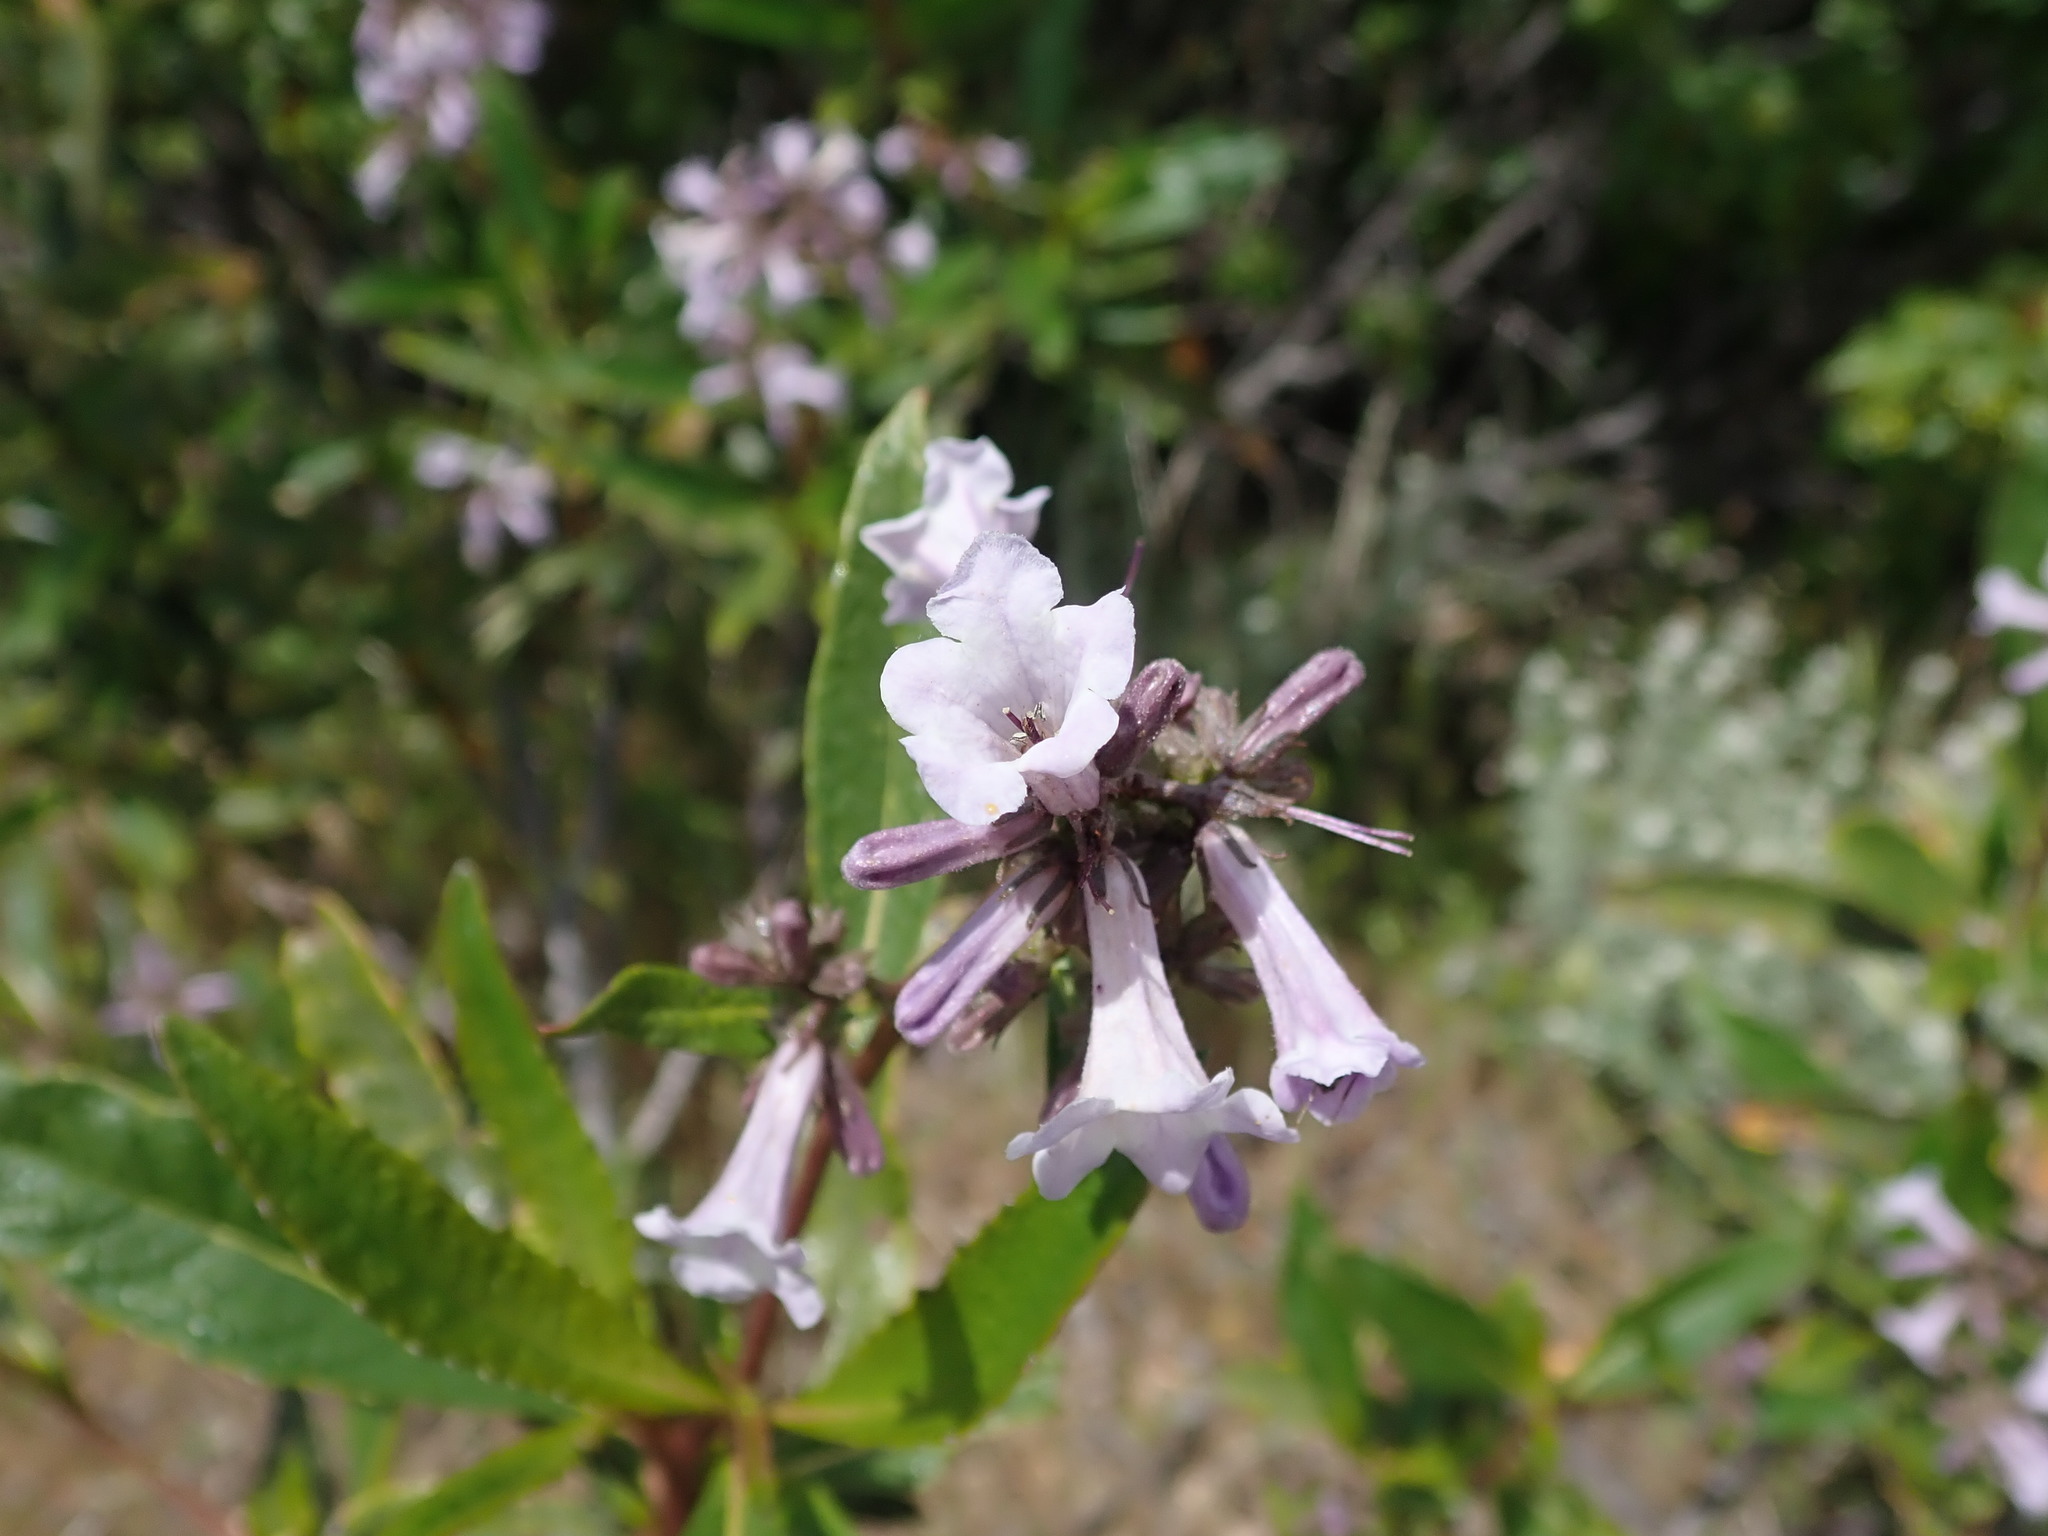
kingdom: Plantae
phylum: Tracheophyta
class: Magnoliopsida
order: Boraginales
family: Namaceae
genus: Eriodictyon
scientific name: Eriodictyon californicum
